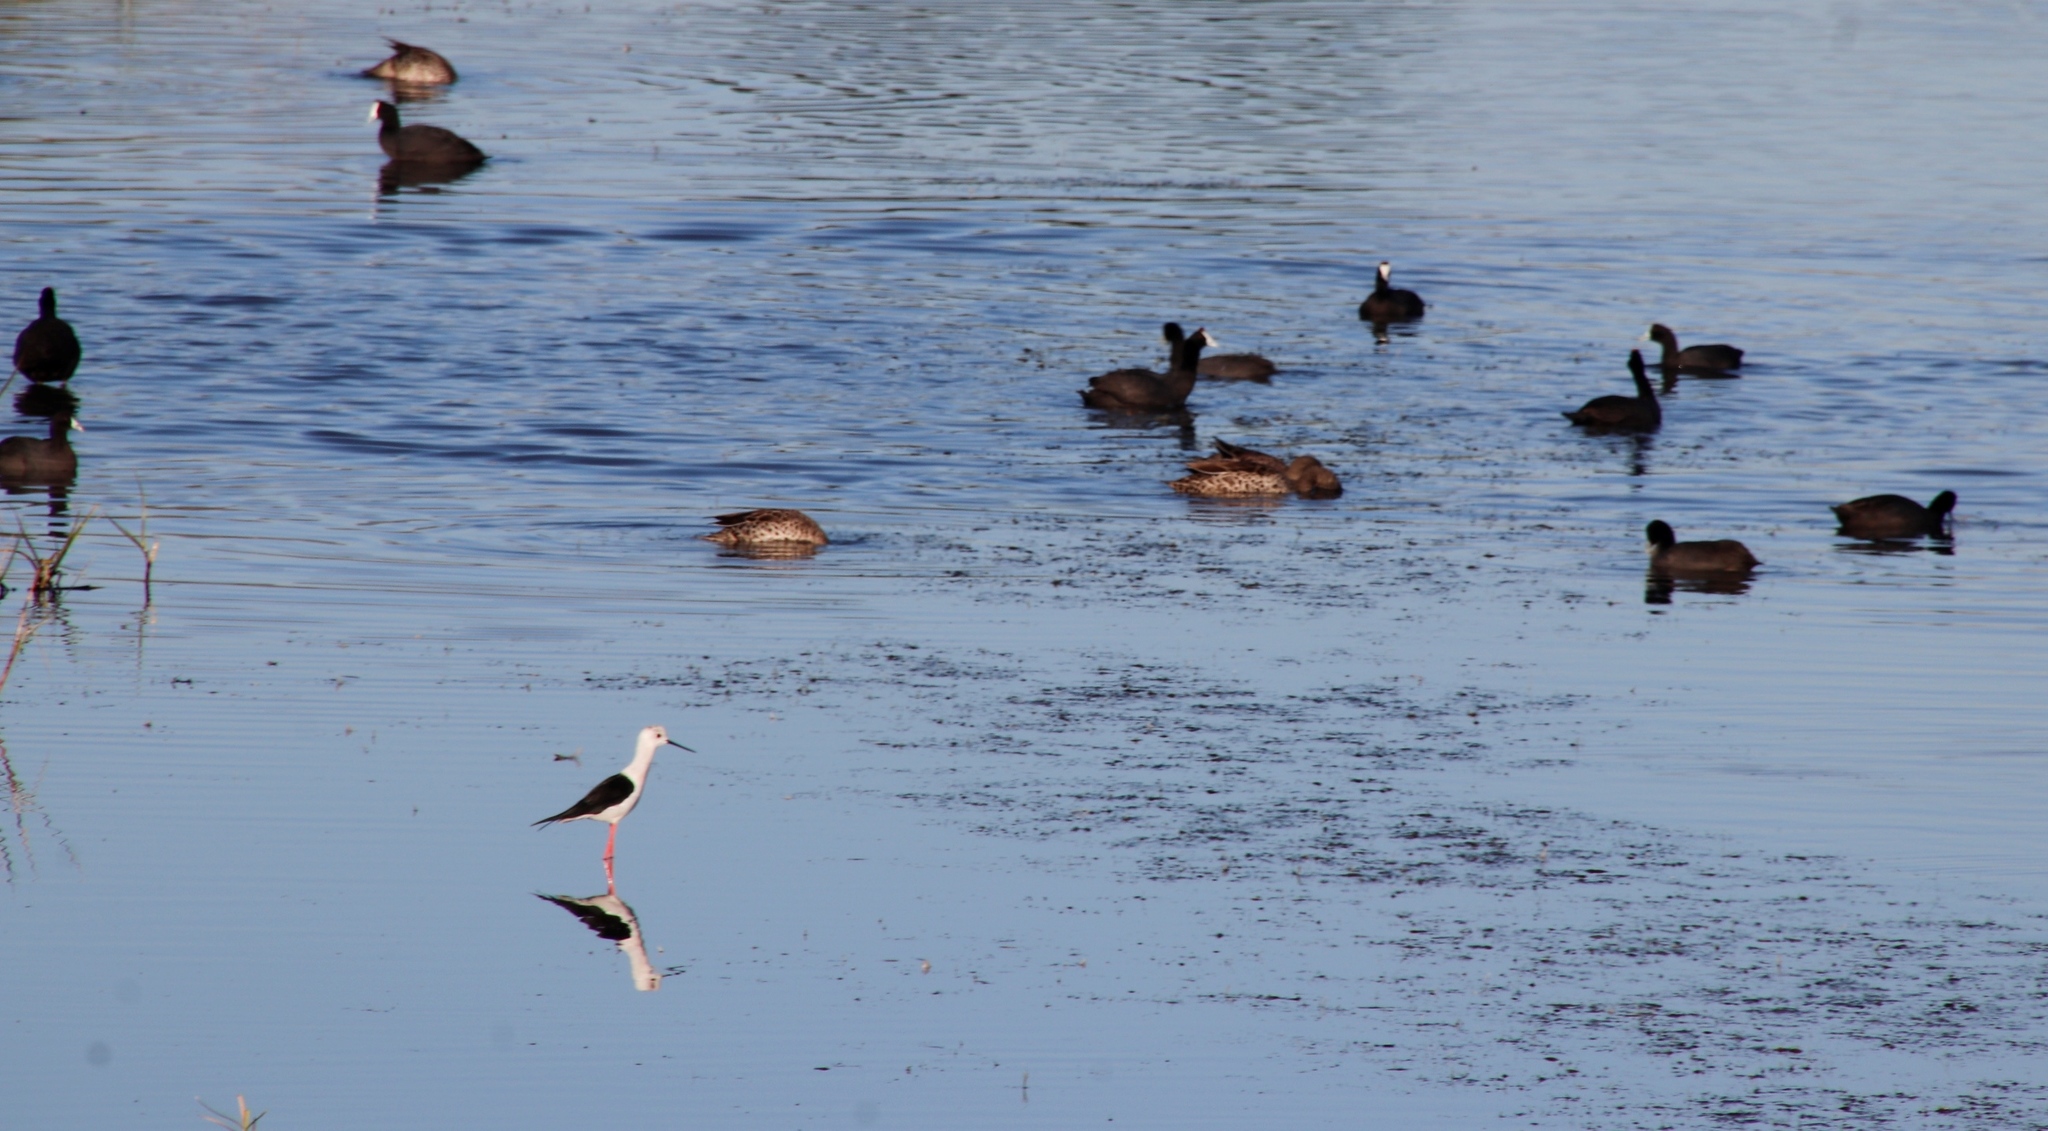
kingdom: Animalia
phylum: Chordata
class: Aves
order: Anseriformes
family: Anatidae
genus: Anas
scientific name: Anas undulata
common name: Yellow-billed duck
